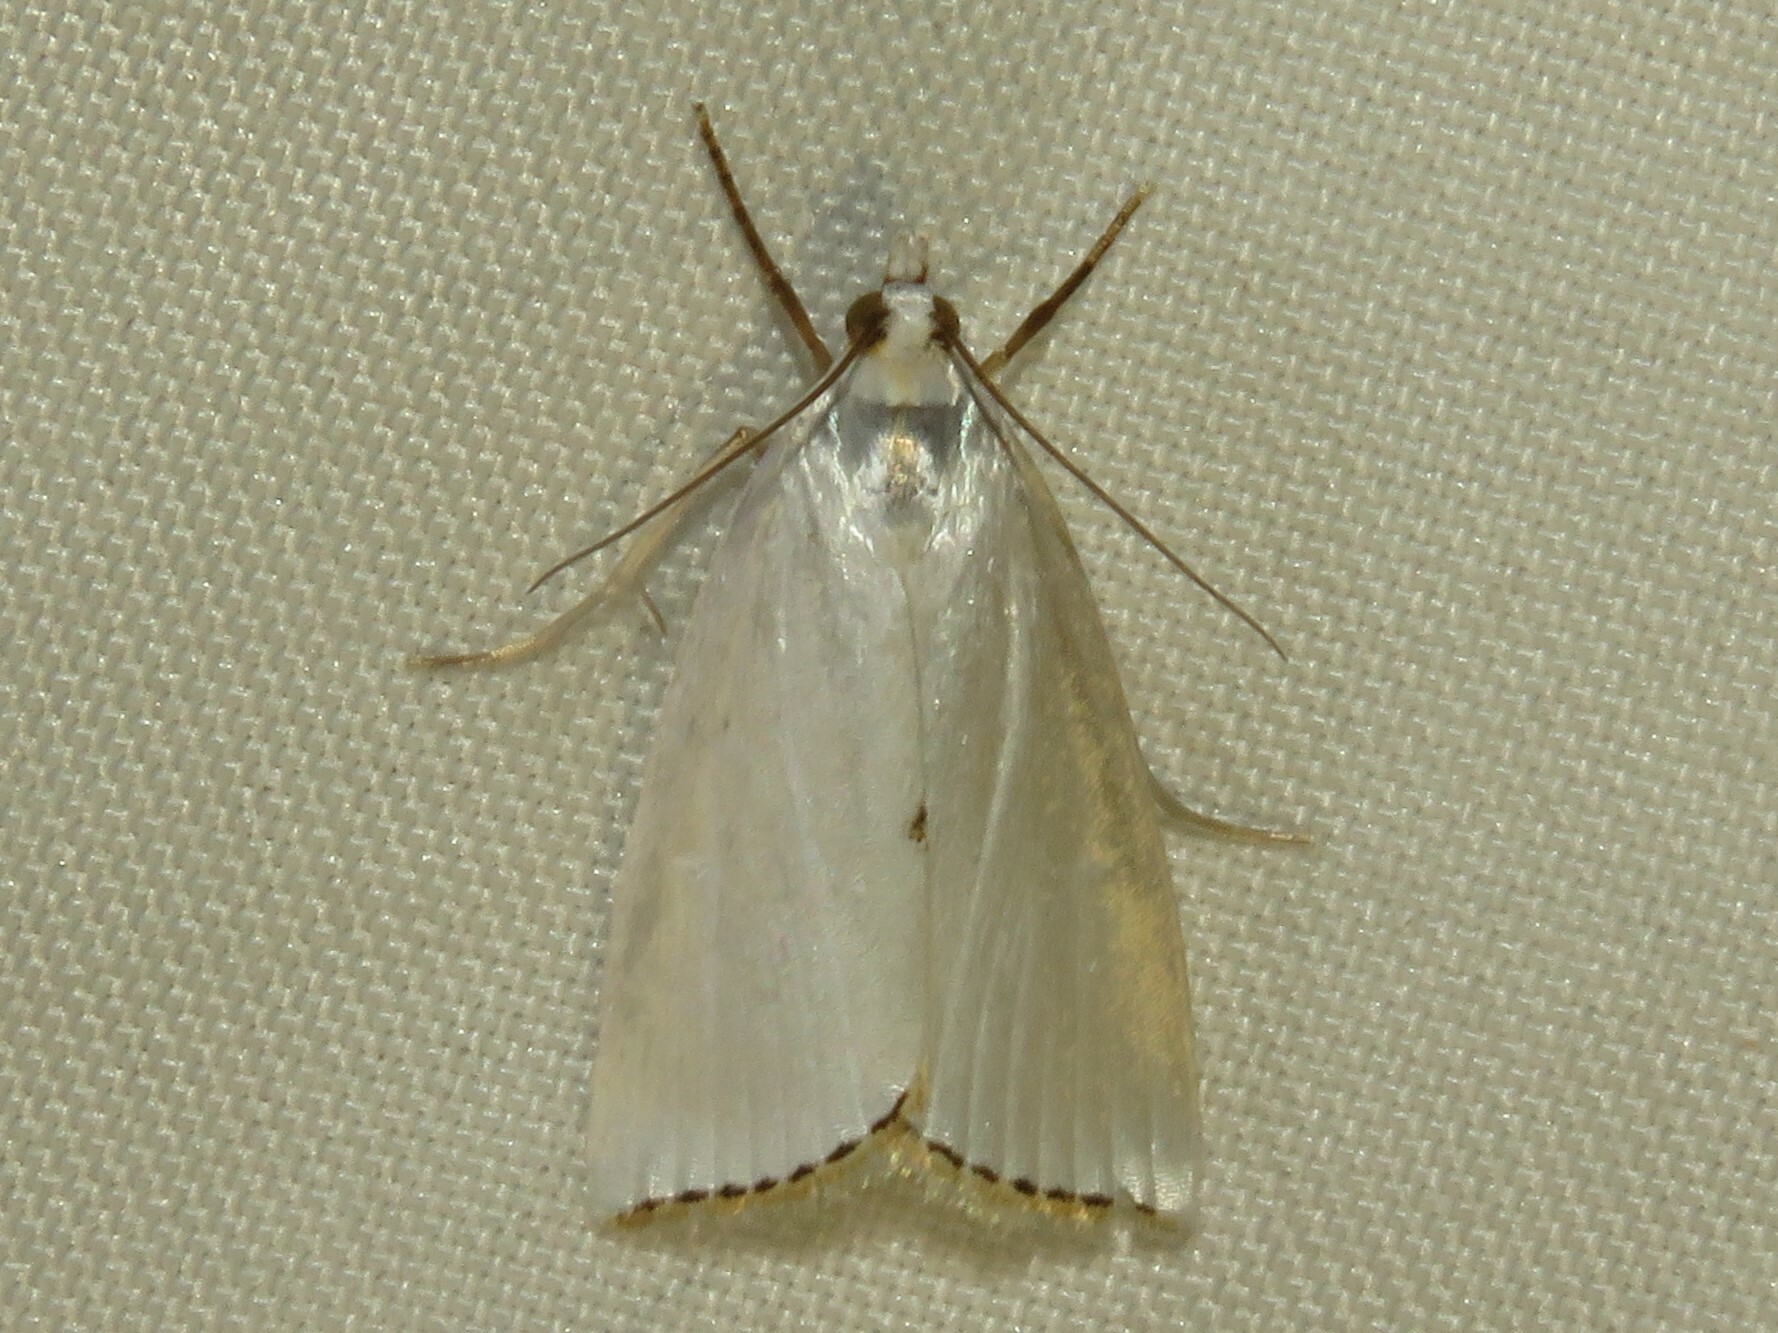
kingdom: Animalia
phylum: Arthropoda
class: Insecta
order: Lepidoptera
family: Crambidae
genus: Argyria
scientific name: Argyria nivalis
